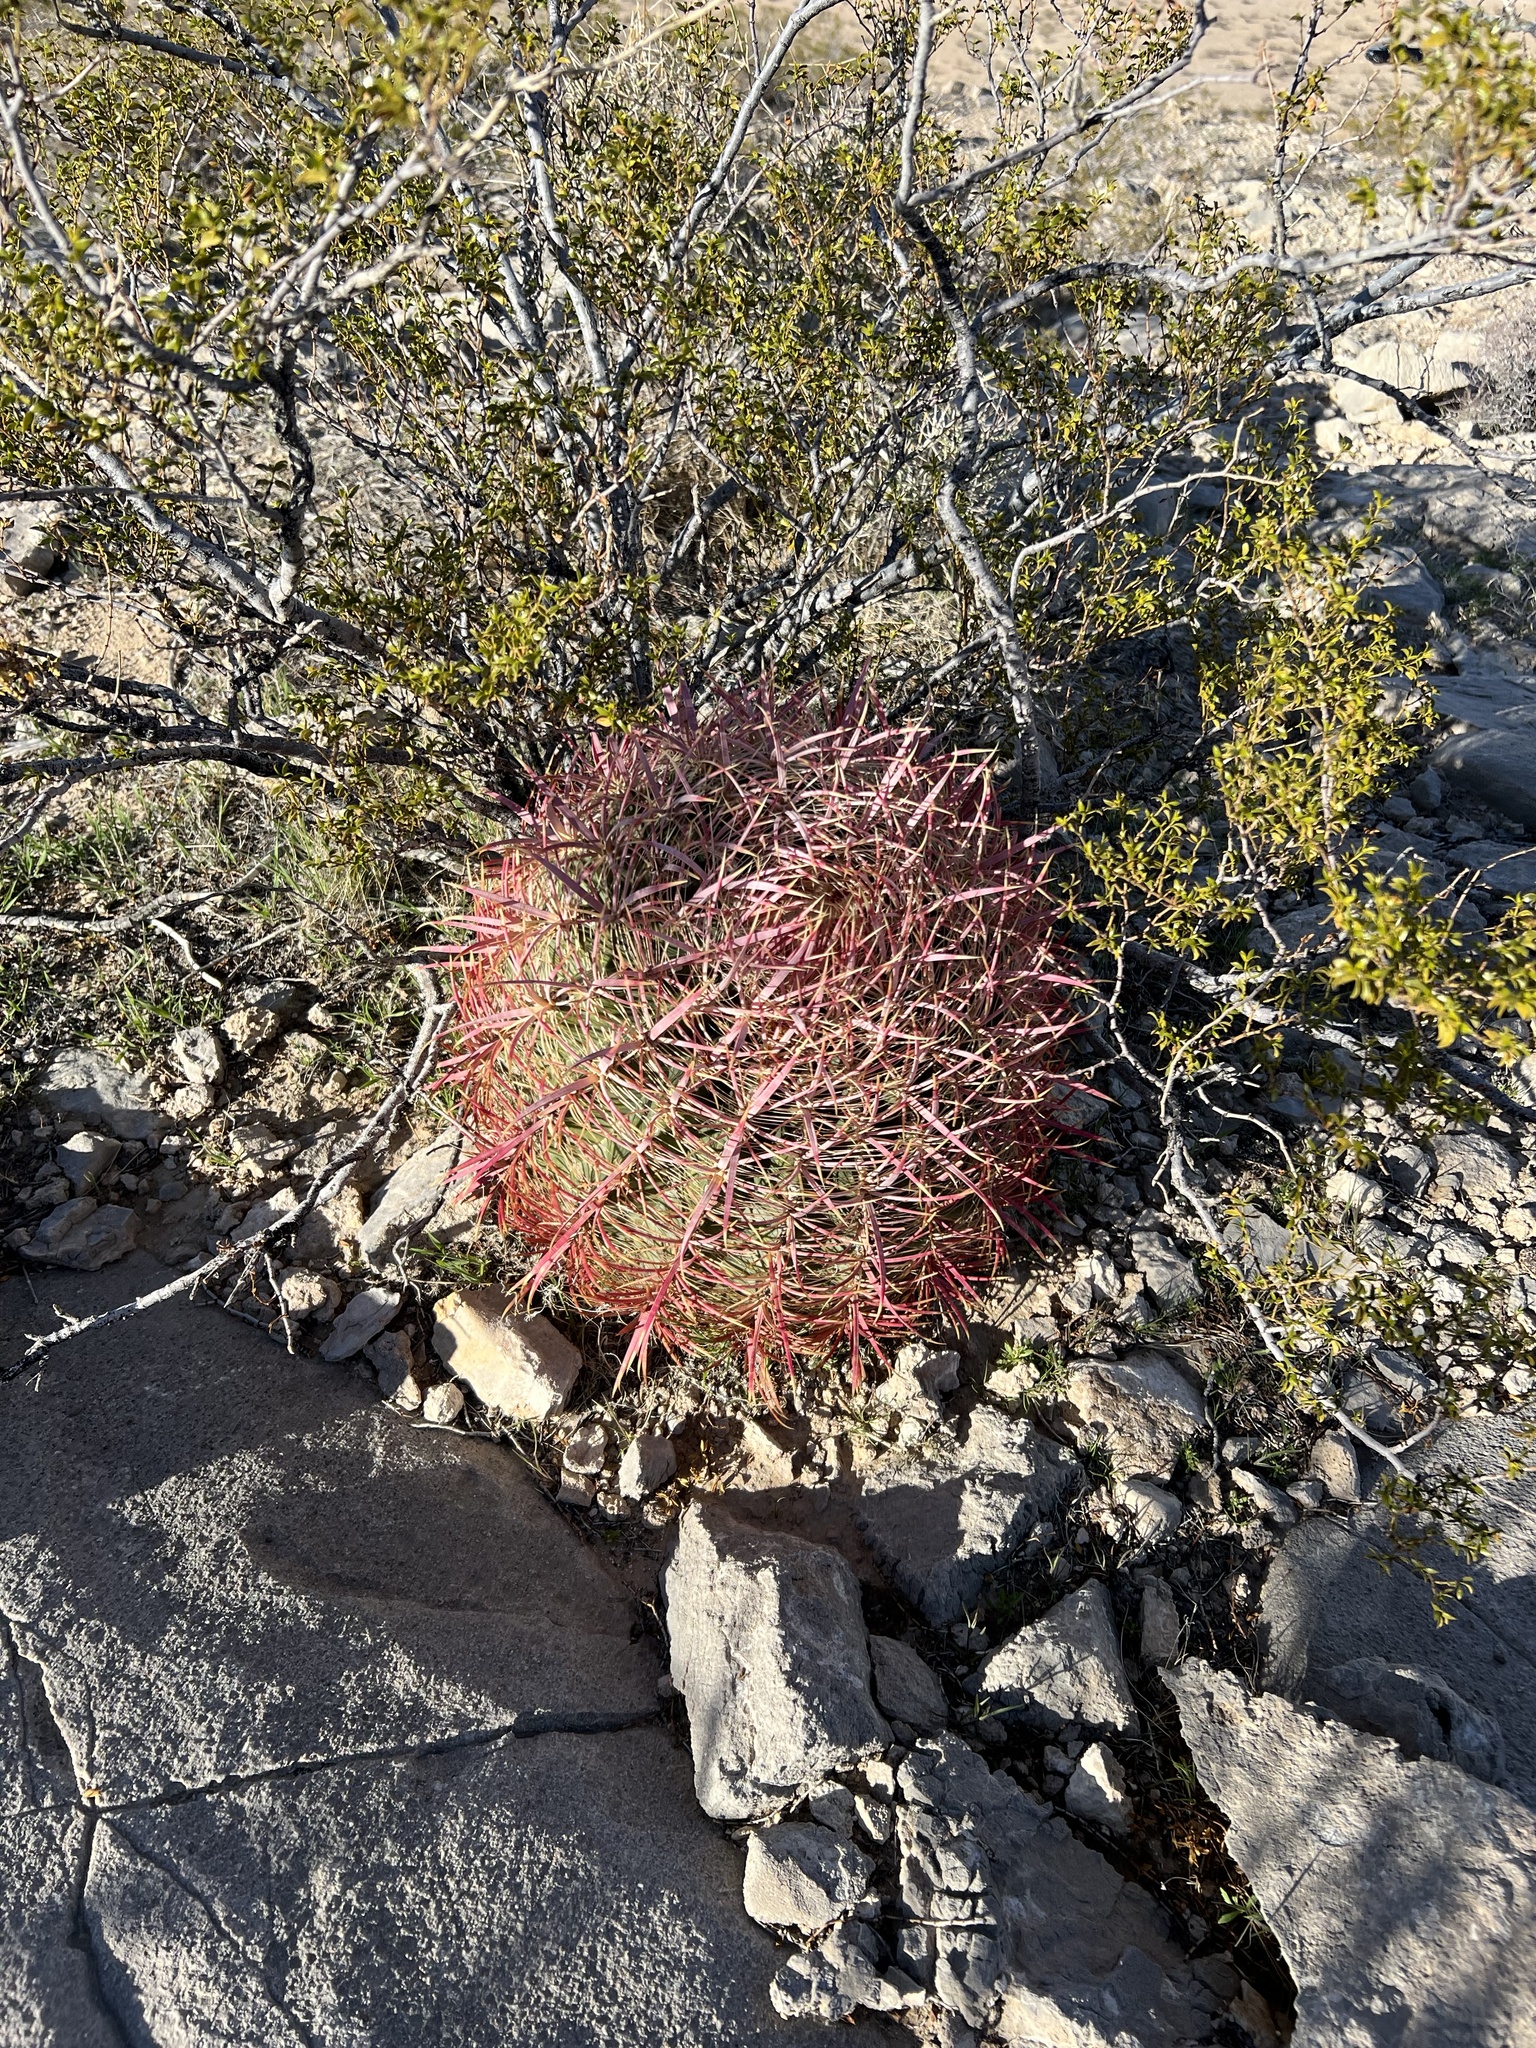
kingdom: Plantae
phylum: Tracheophyta
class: Magnoliopsida
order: Caryophyllales
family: Cactaceae
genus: Ferocactus
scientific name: Ferocactus cylindraceus
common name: California barrel cactus
